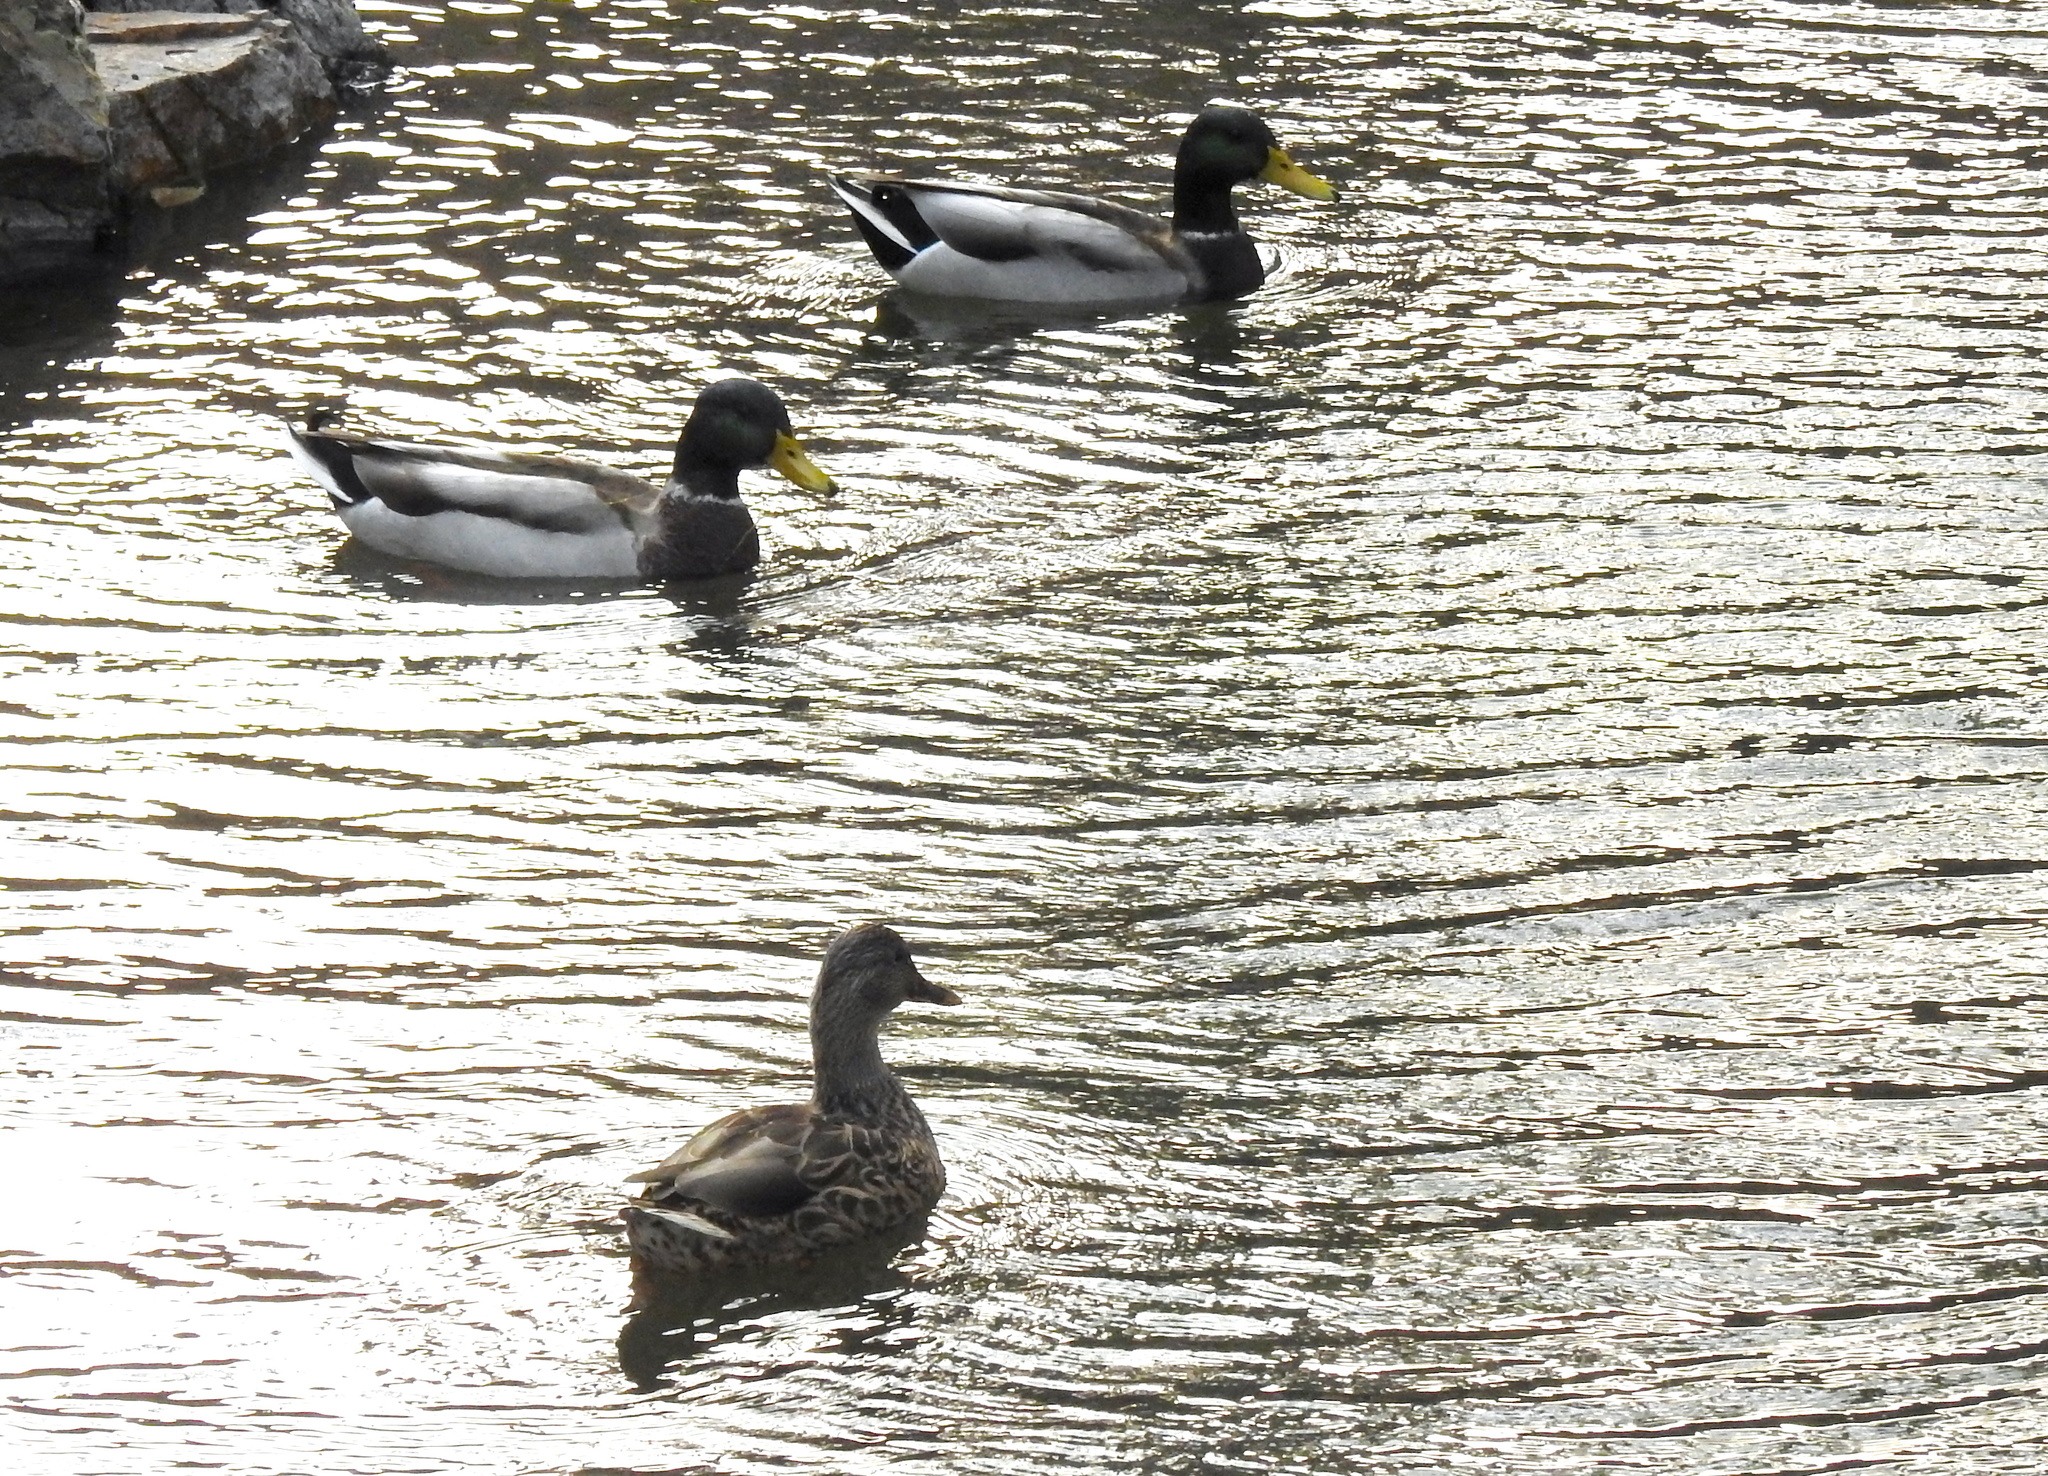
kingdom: Animalia
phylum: Chordata
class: Aves
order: Anseriformes
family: Anatidae
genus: Anas
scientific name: Anas platyrhynchos
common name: Mallard
